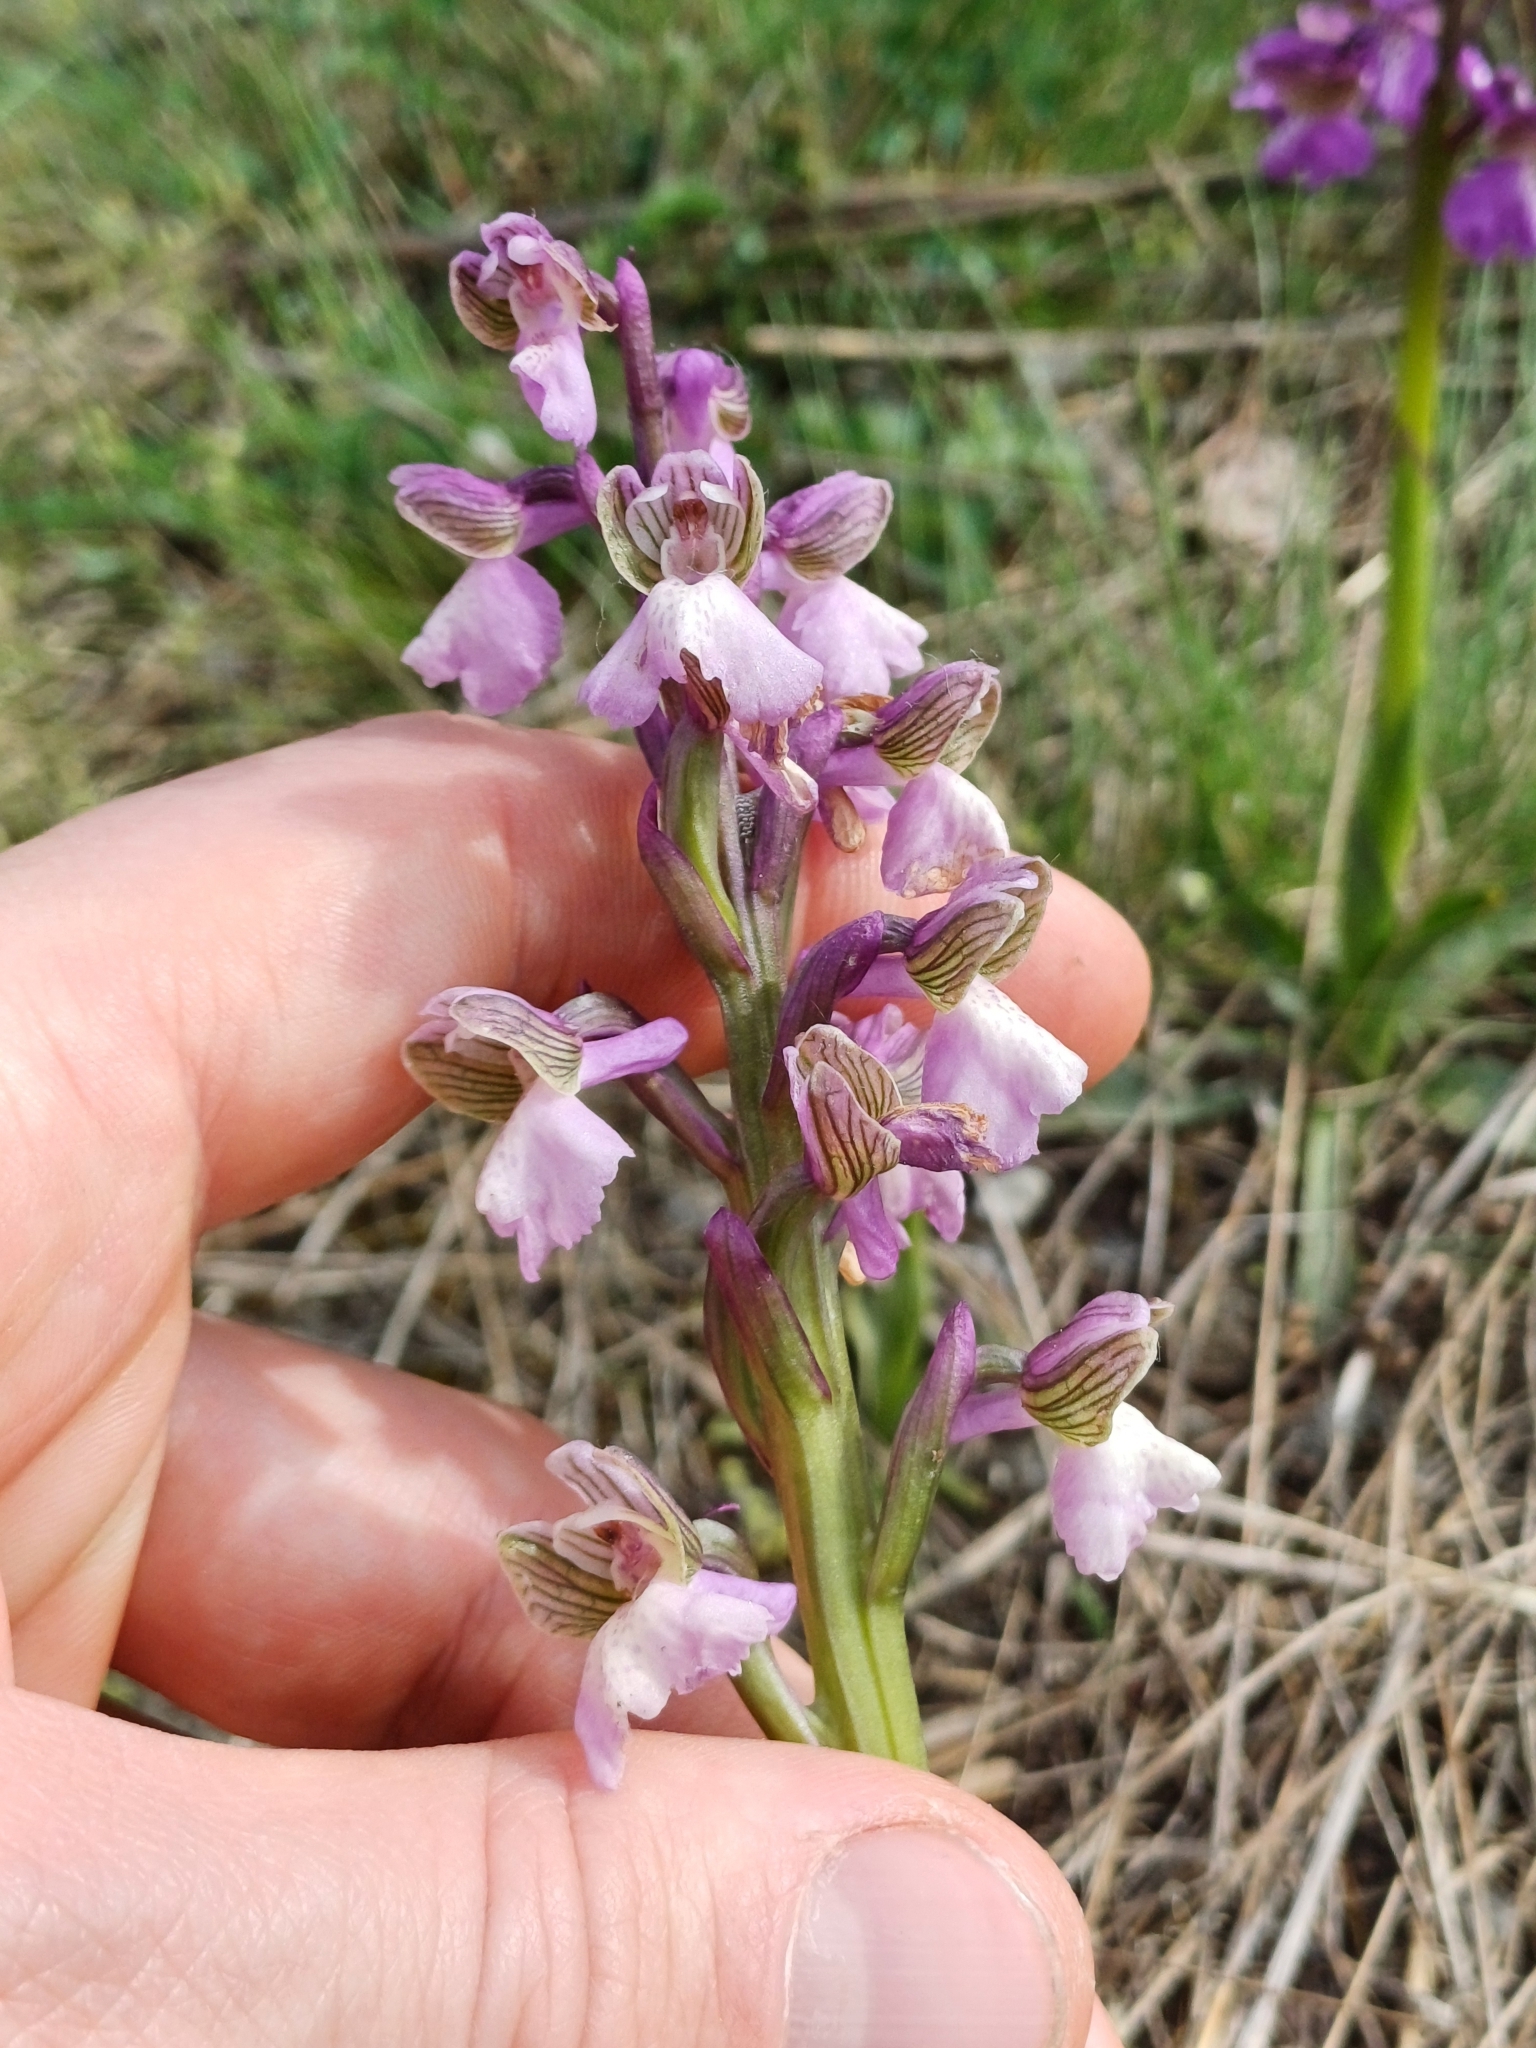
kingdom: Plantae
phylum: Tracheophyta
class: Liliopsida
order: Asparagales
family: Orchidaceae
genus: Anacamptis
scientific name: Anacamptis morio
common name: Green-winged orchid
